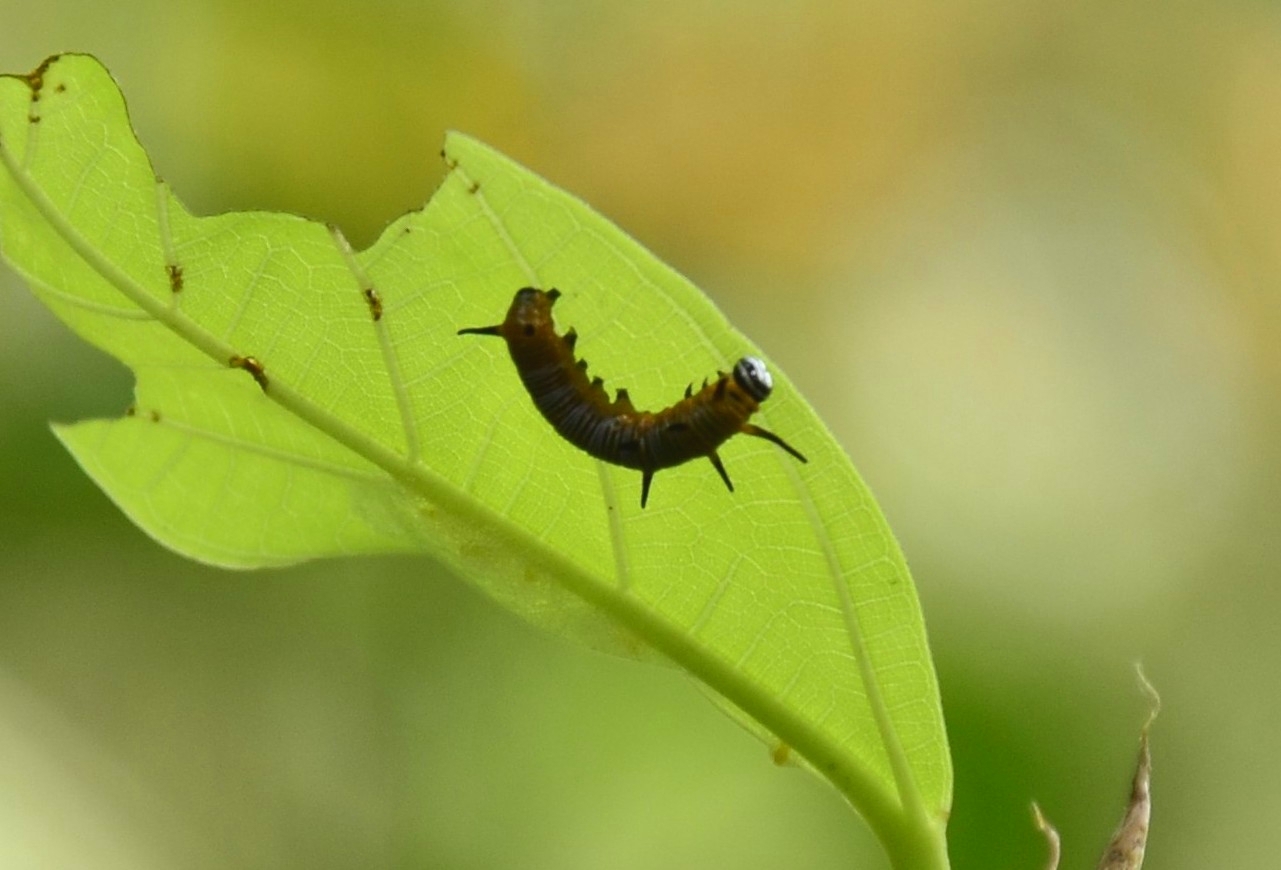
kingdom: Animalia
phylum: Arthropoda
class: Insecta
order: Lepidoptera
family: Nymphalidae
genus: Euploea
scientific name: Euploea core
